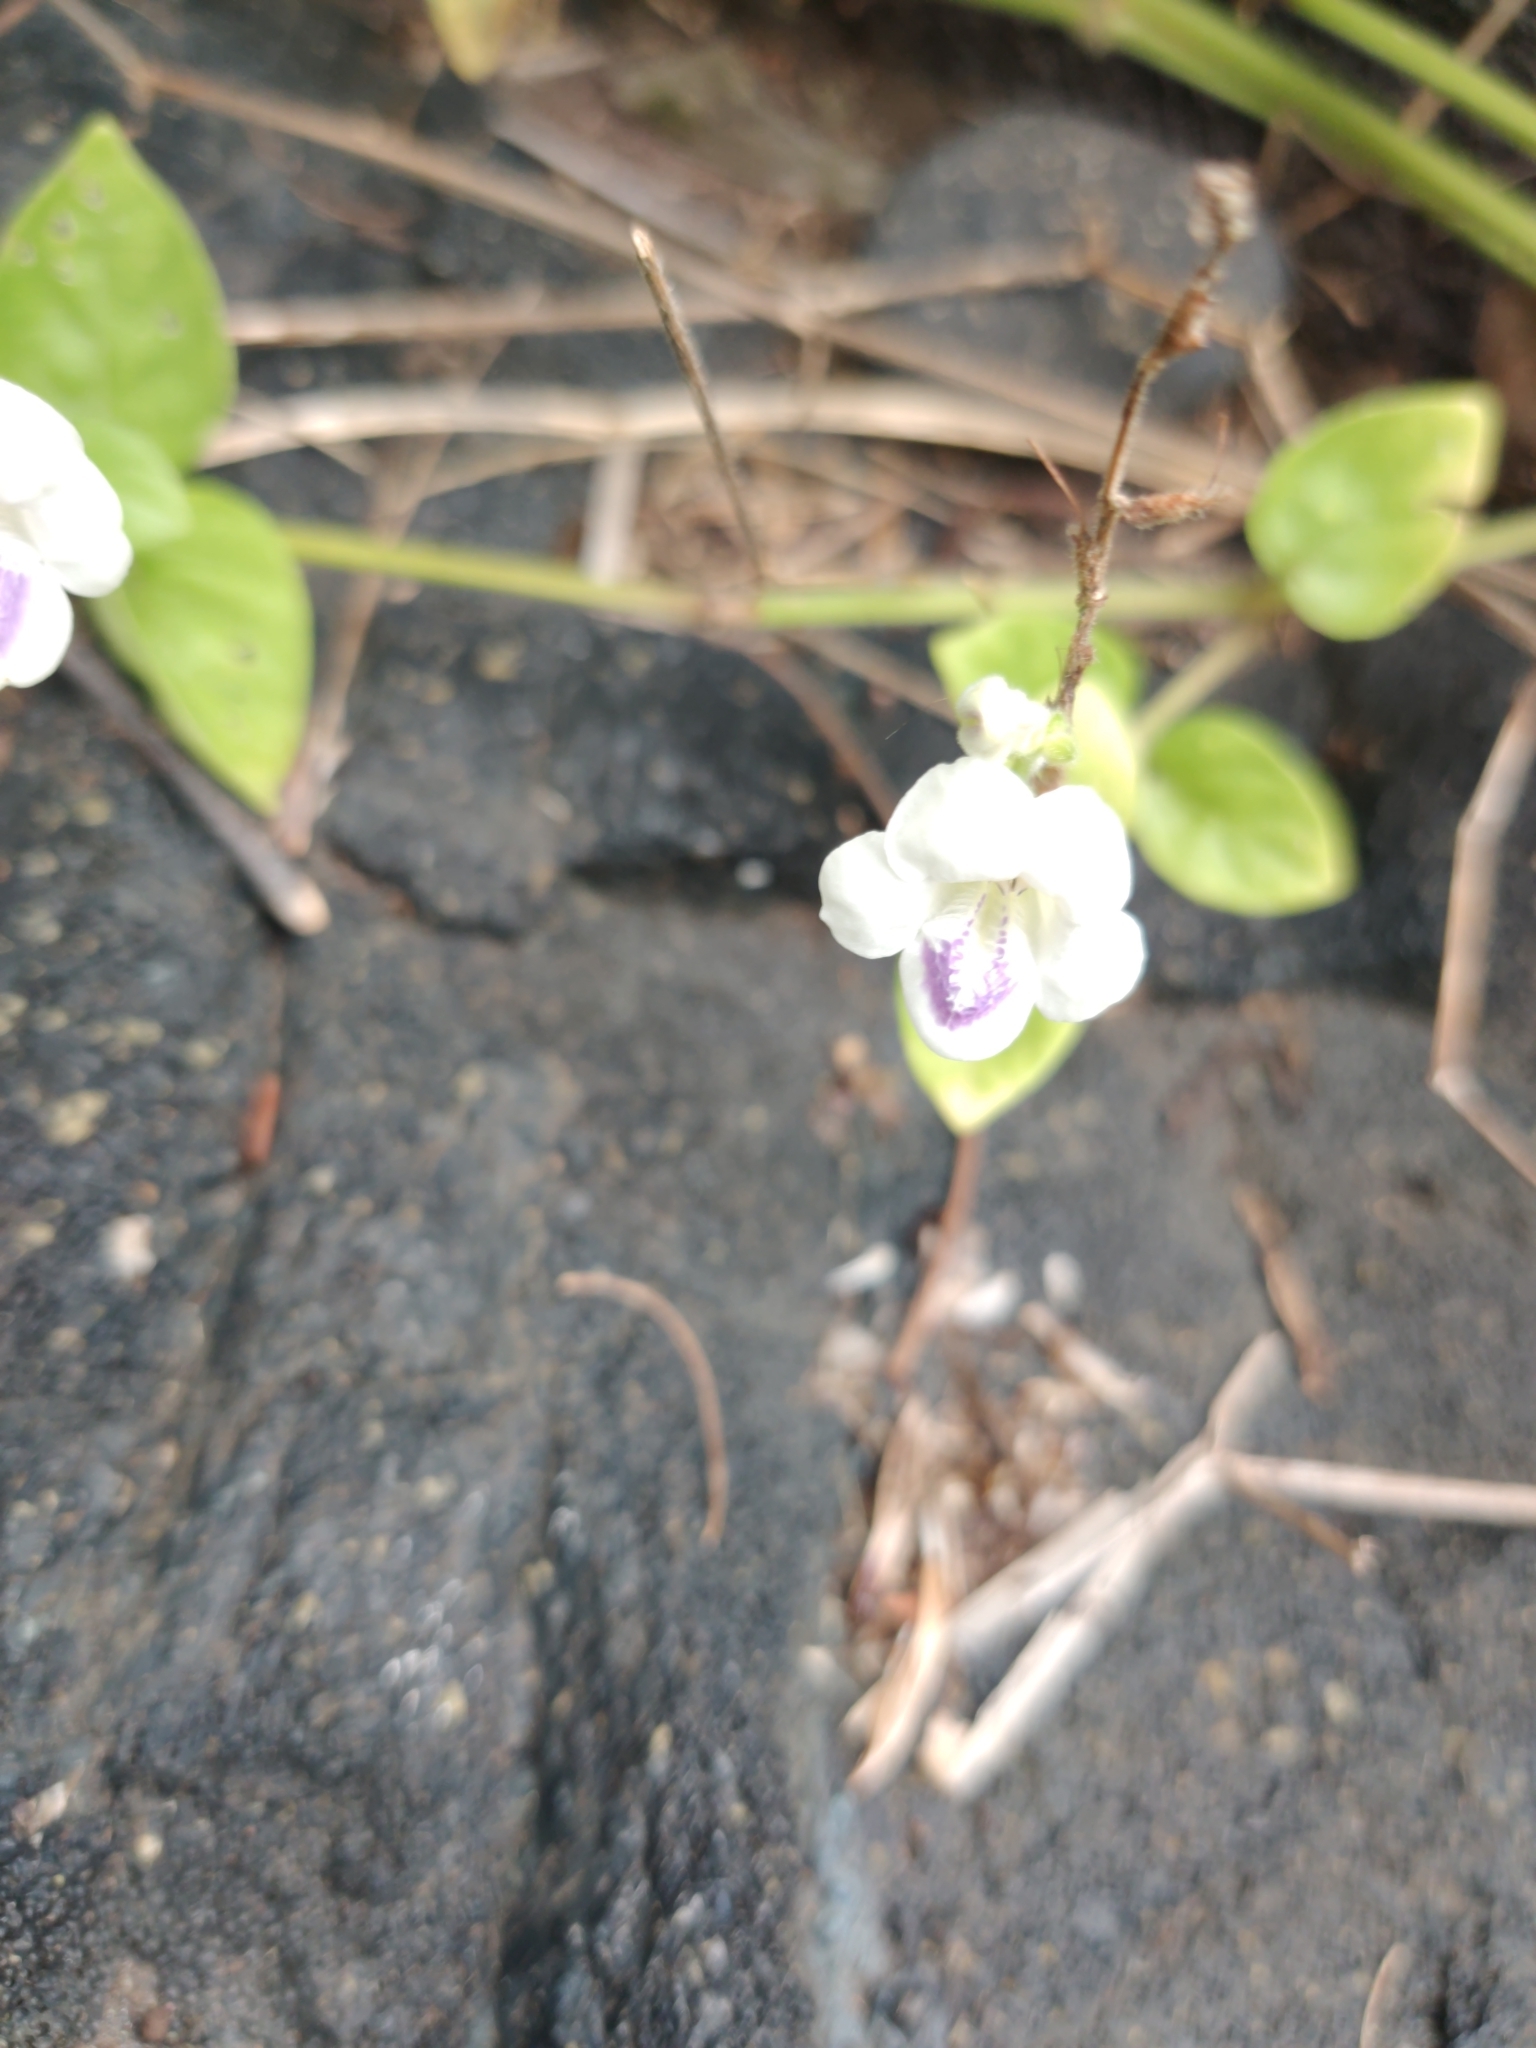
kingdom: Plantae
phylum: Tracheophyta
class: Magnoliopsida
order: Lamiales
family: Acanthaceae
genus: Asystasia
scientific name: Asystasia intrusa
